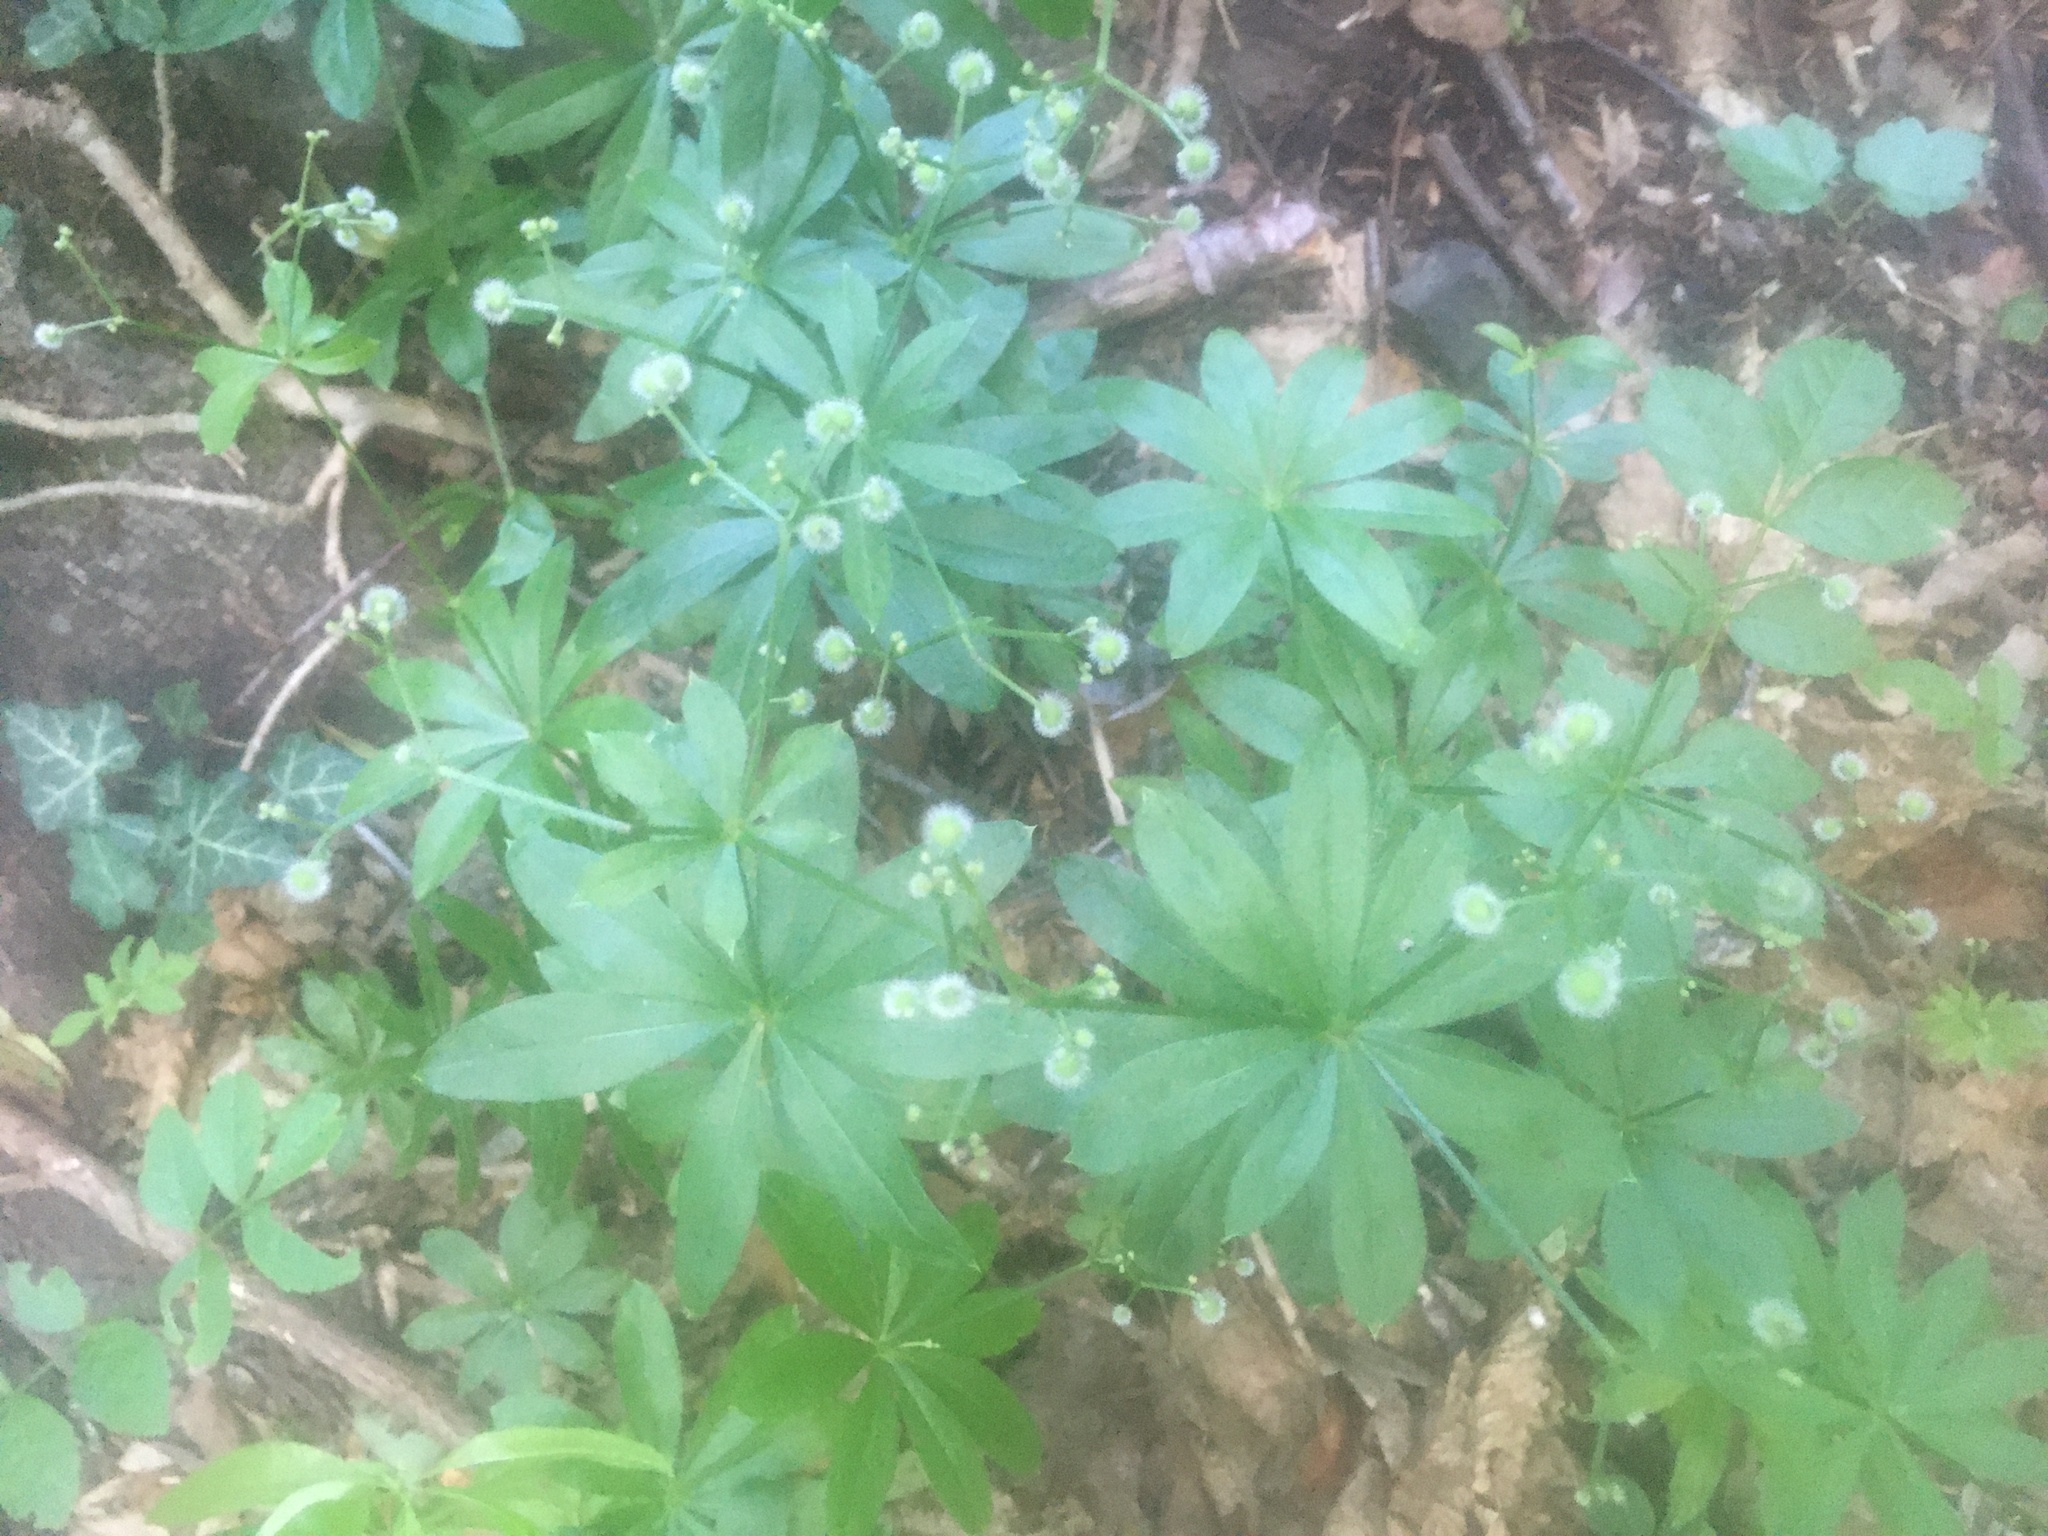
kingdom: Plantae
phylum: Tracheophyta
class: Magnoliopsida
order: Gentianales
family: Rubiaceae
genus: Galium
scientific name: Galium odoratum
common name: Sweet woodruff
